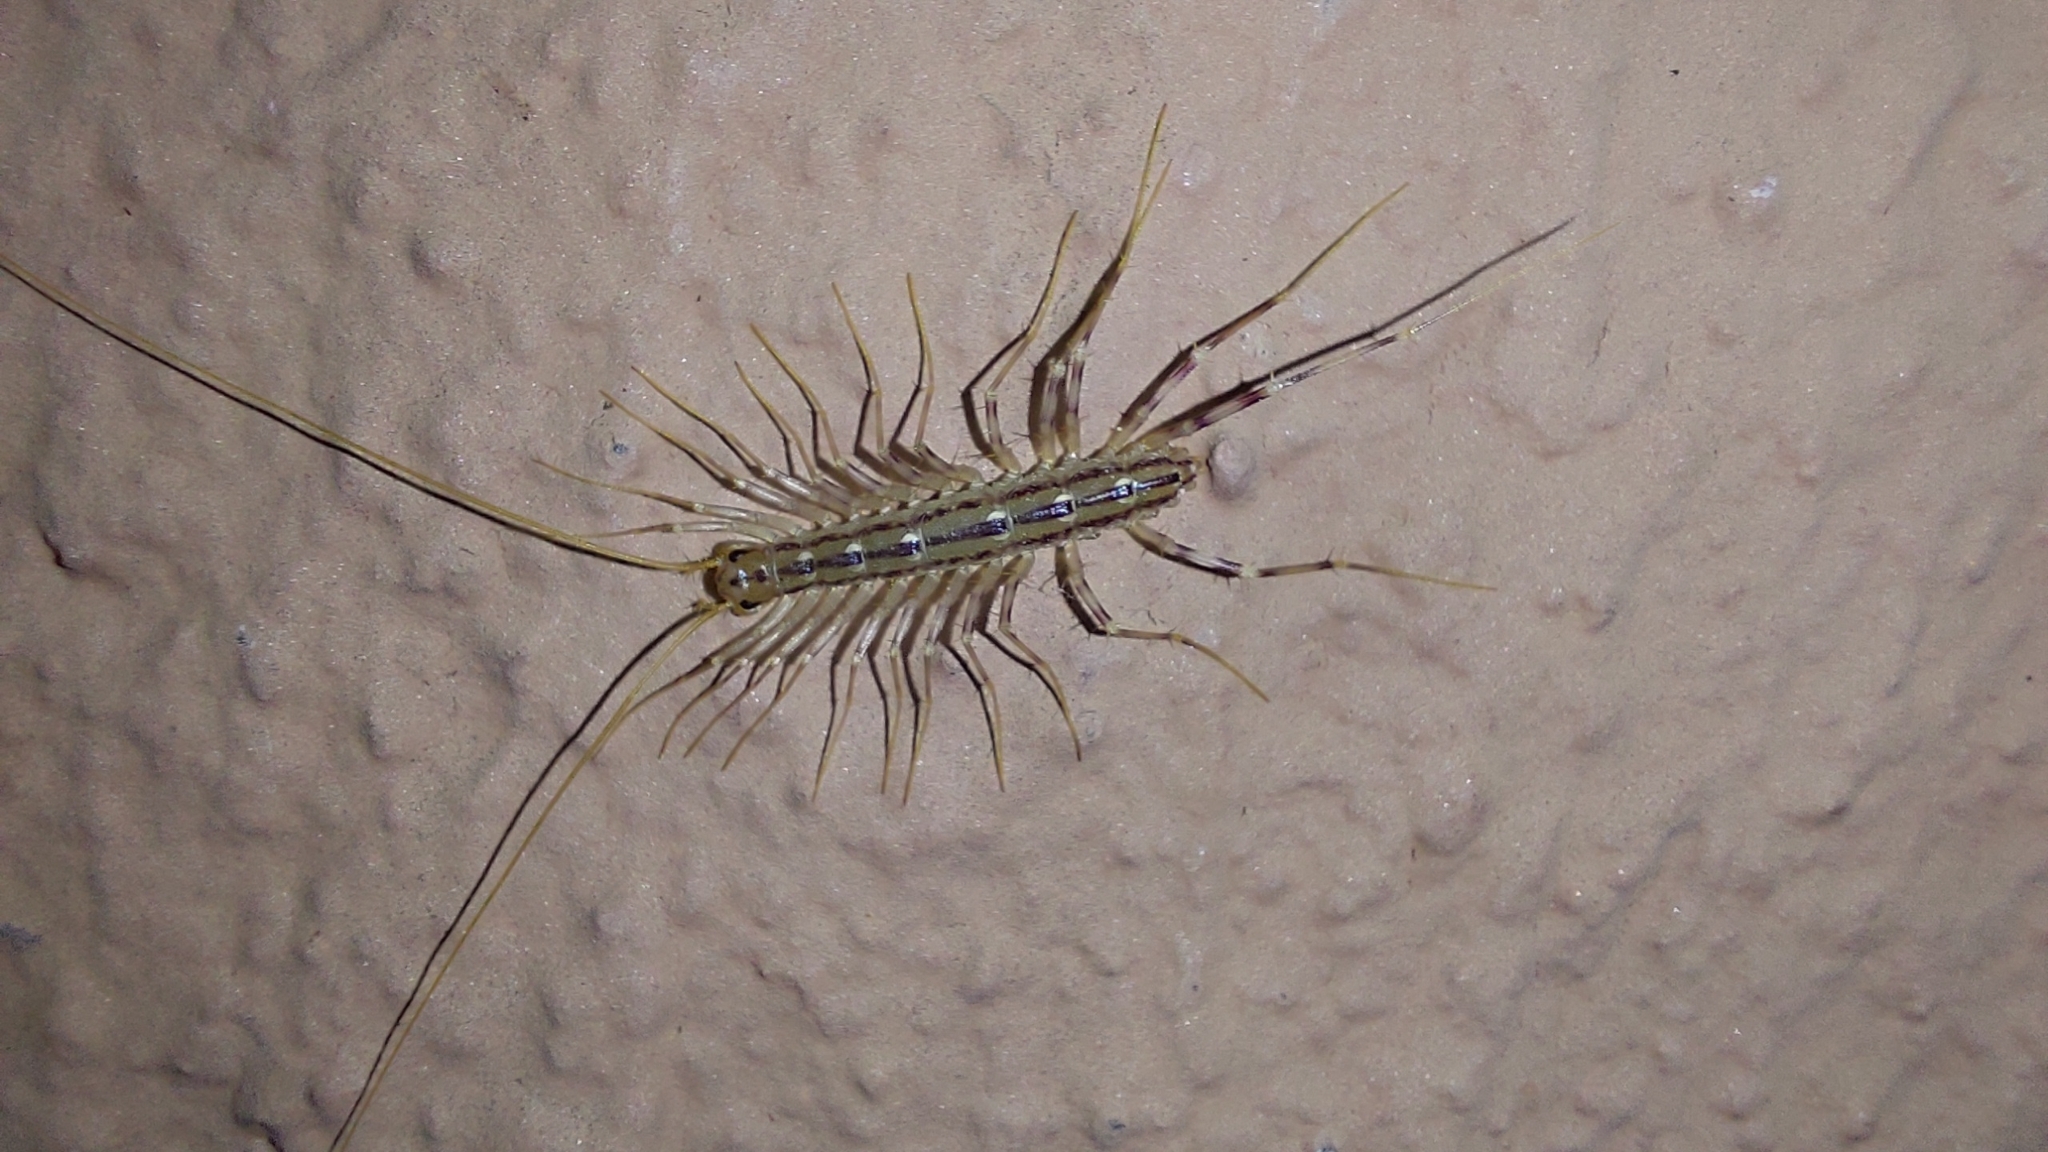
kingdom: Animalia
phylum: Arthropoda
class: Chilopoda
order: Scutigeromorpha
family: Scutigeridae
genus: Scutigera
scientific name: Scutigera coleoptrata
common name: House centipede
